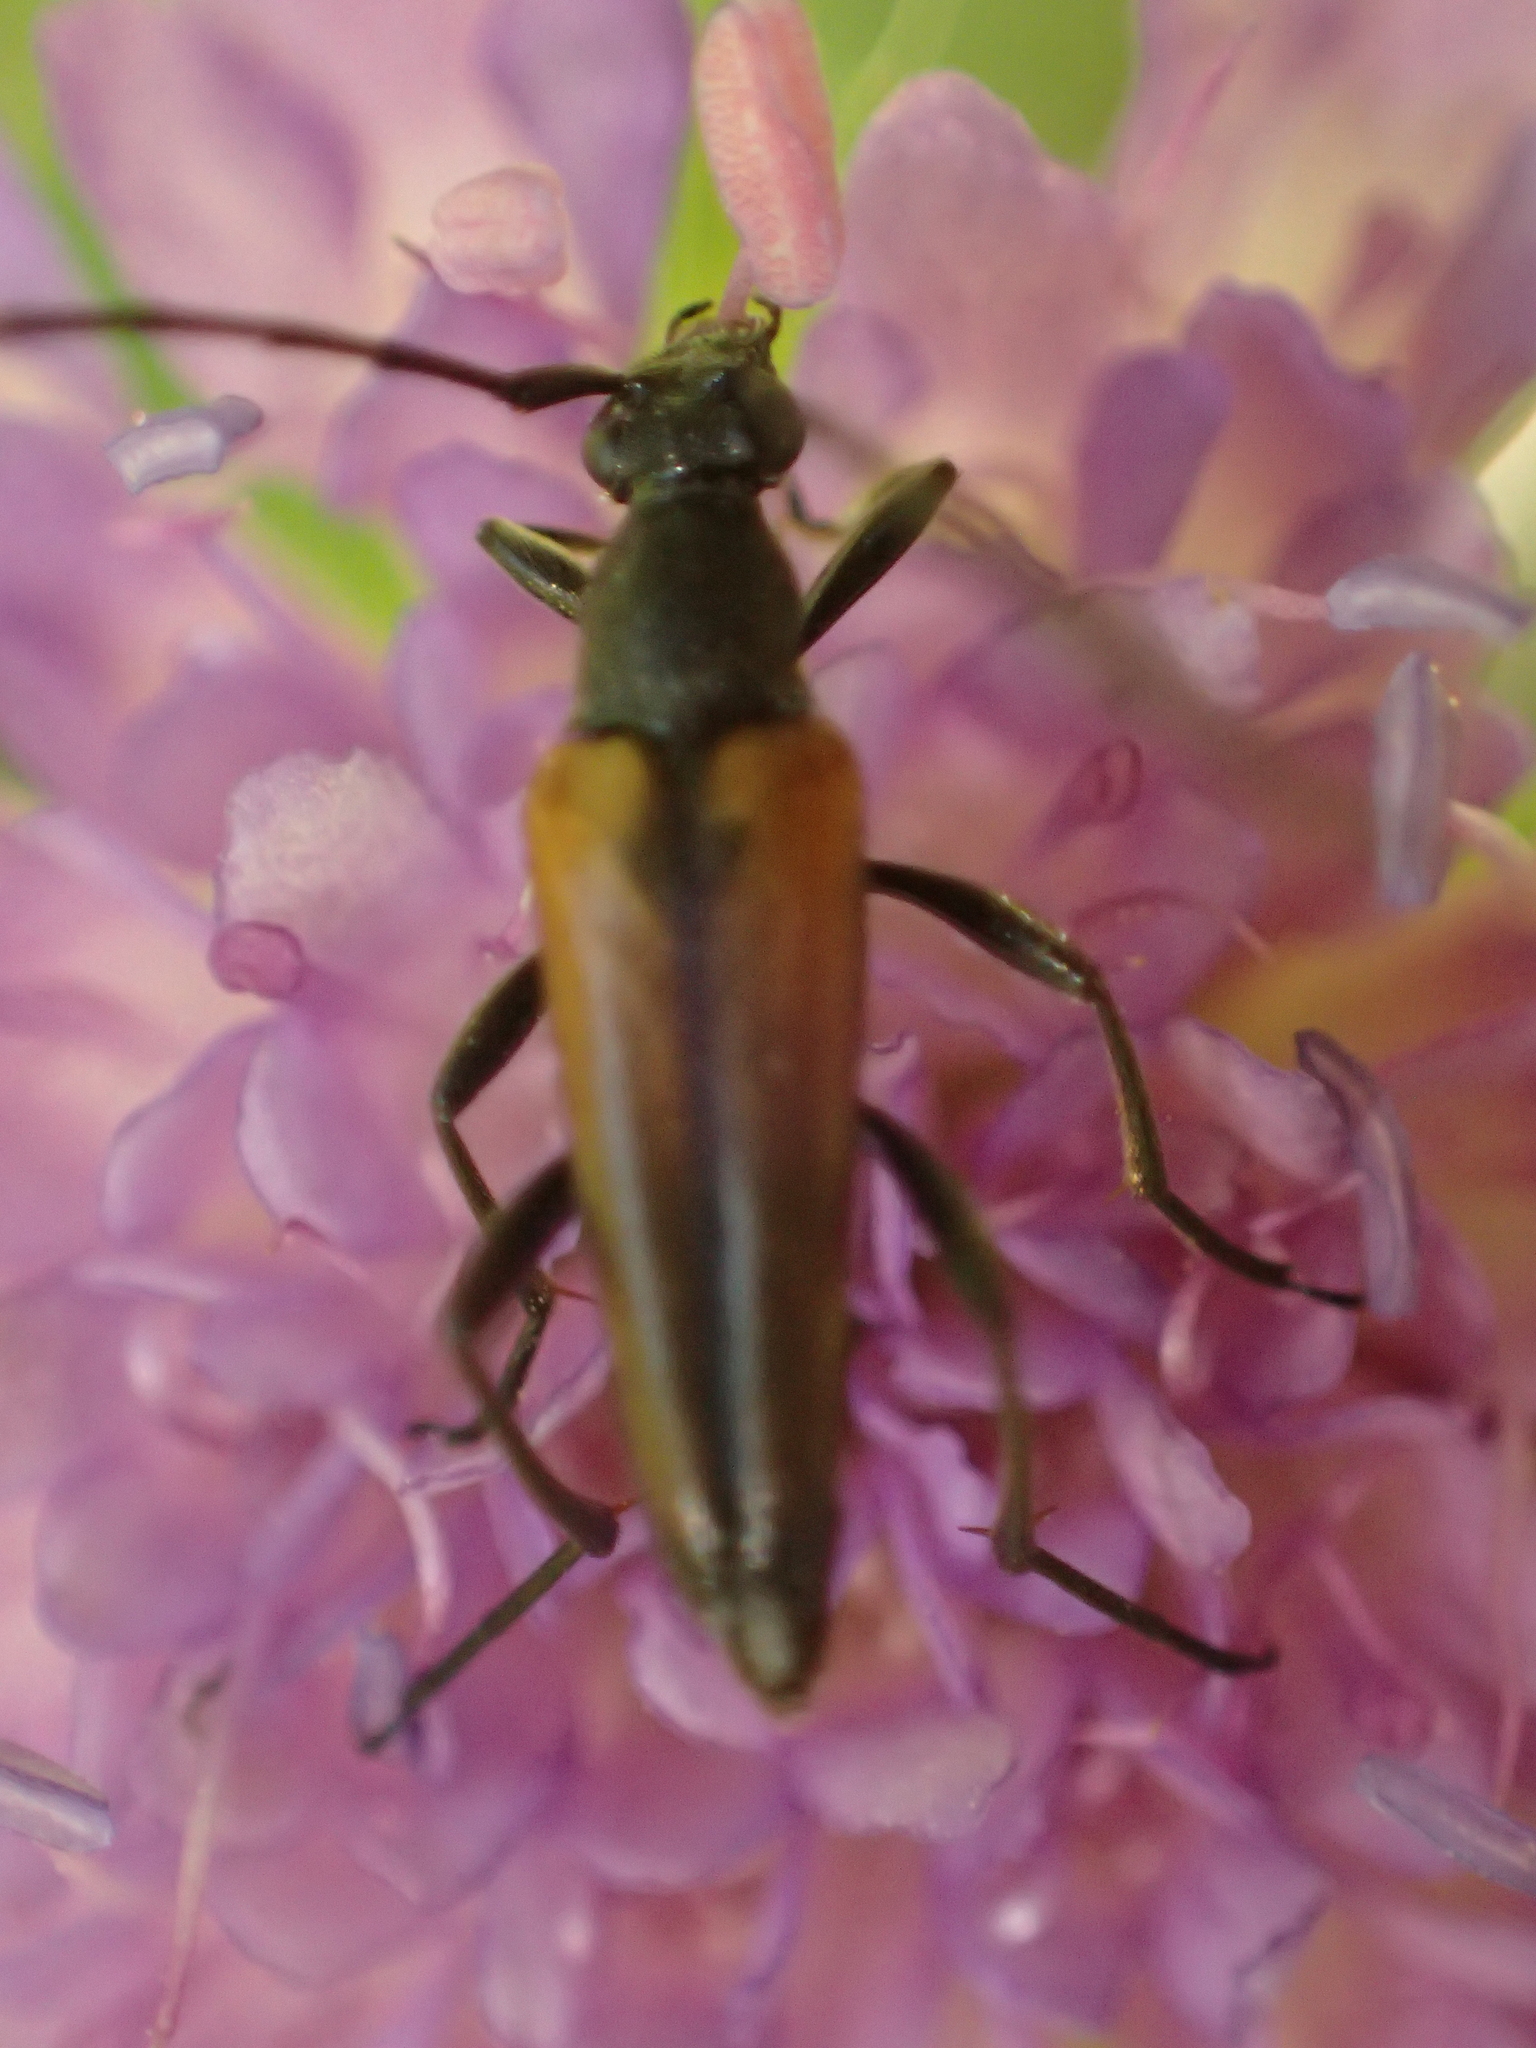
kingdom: Animalia
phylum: Arthropoda
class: Insecta
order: Coleoptera
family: Cerambycidae
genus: Stenurella
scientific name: Stenurella melanura
